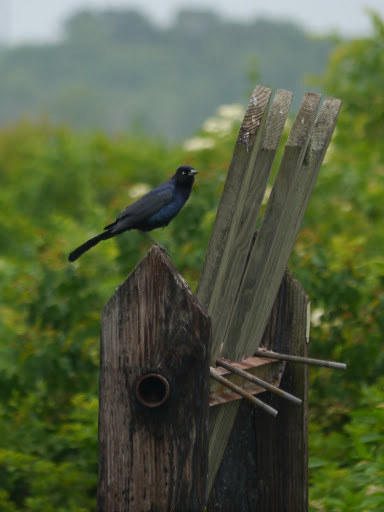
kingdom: Animalia
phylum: Chordata
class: Aves
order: Passeriformes
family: Icteridae
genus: Quiscalus
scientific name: Quiscalus major
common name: Boat-tailed grackle
